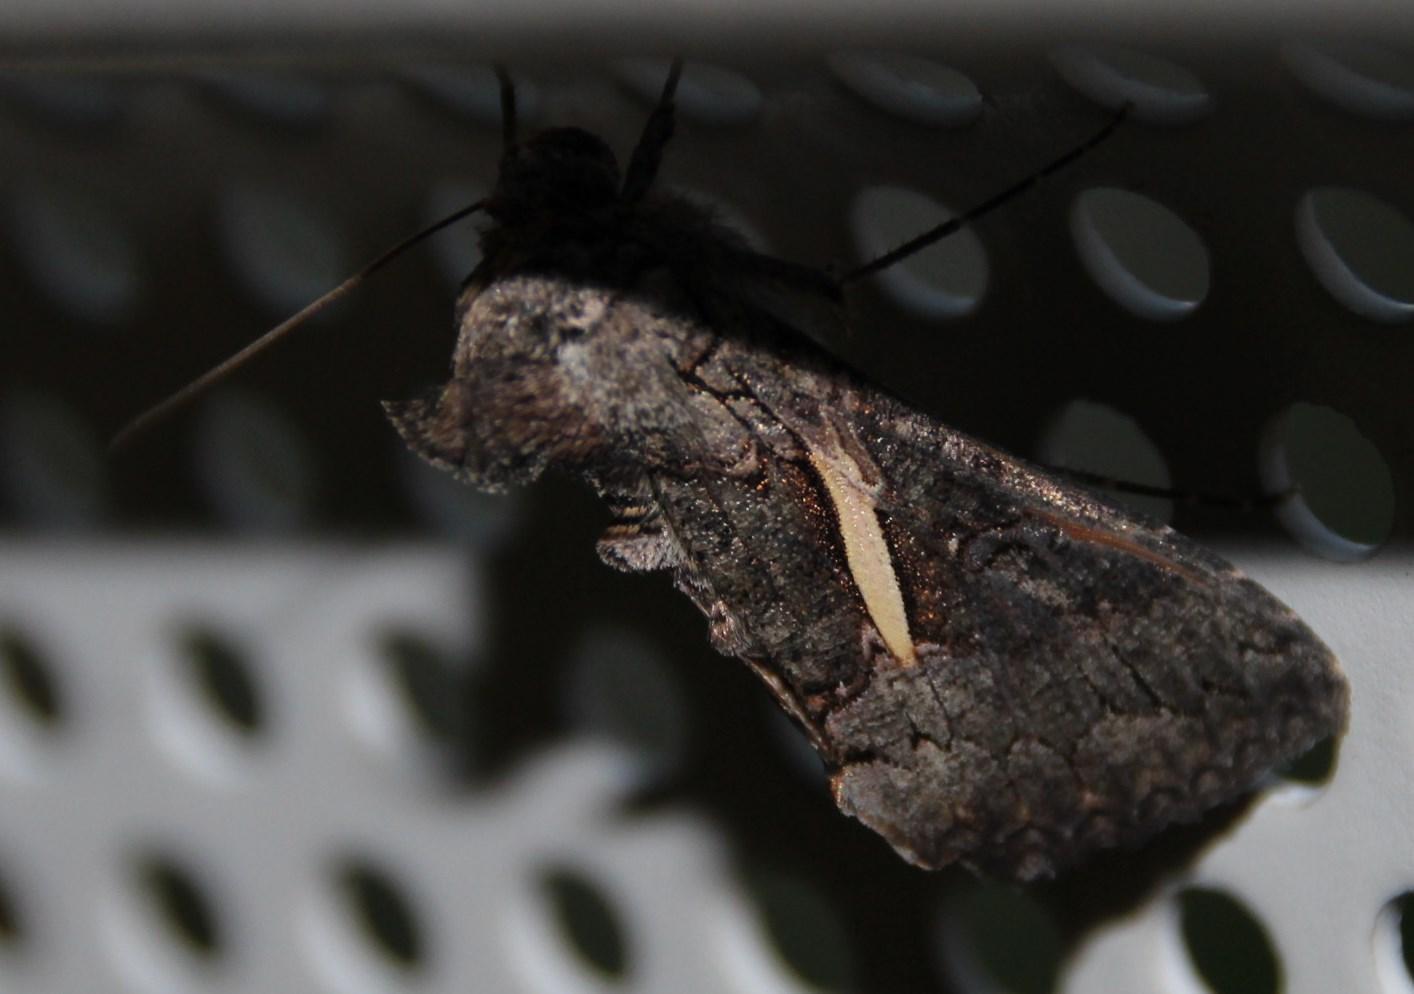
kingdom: Animalia
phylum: Arthropoda
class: Insecta
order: Lepidoptera
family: Noctuidae
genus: Vittaplusia
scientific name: Vittaplusia vittata
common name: Streaked plusia
